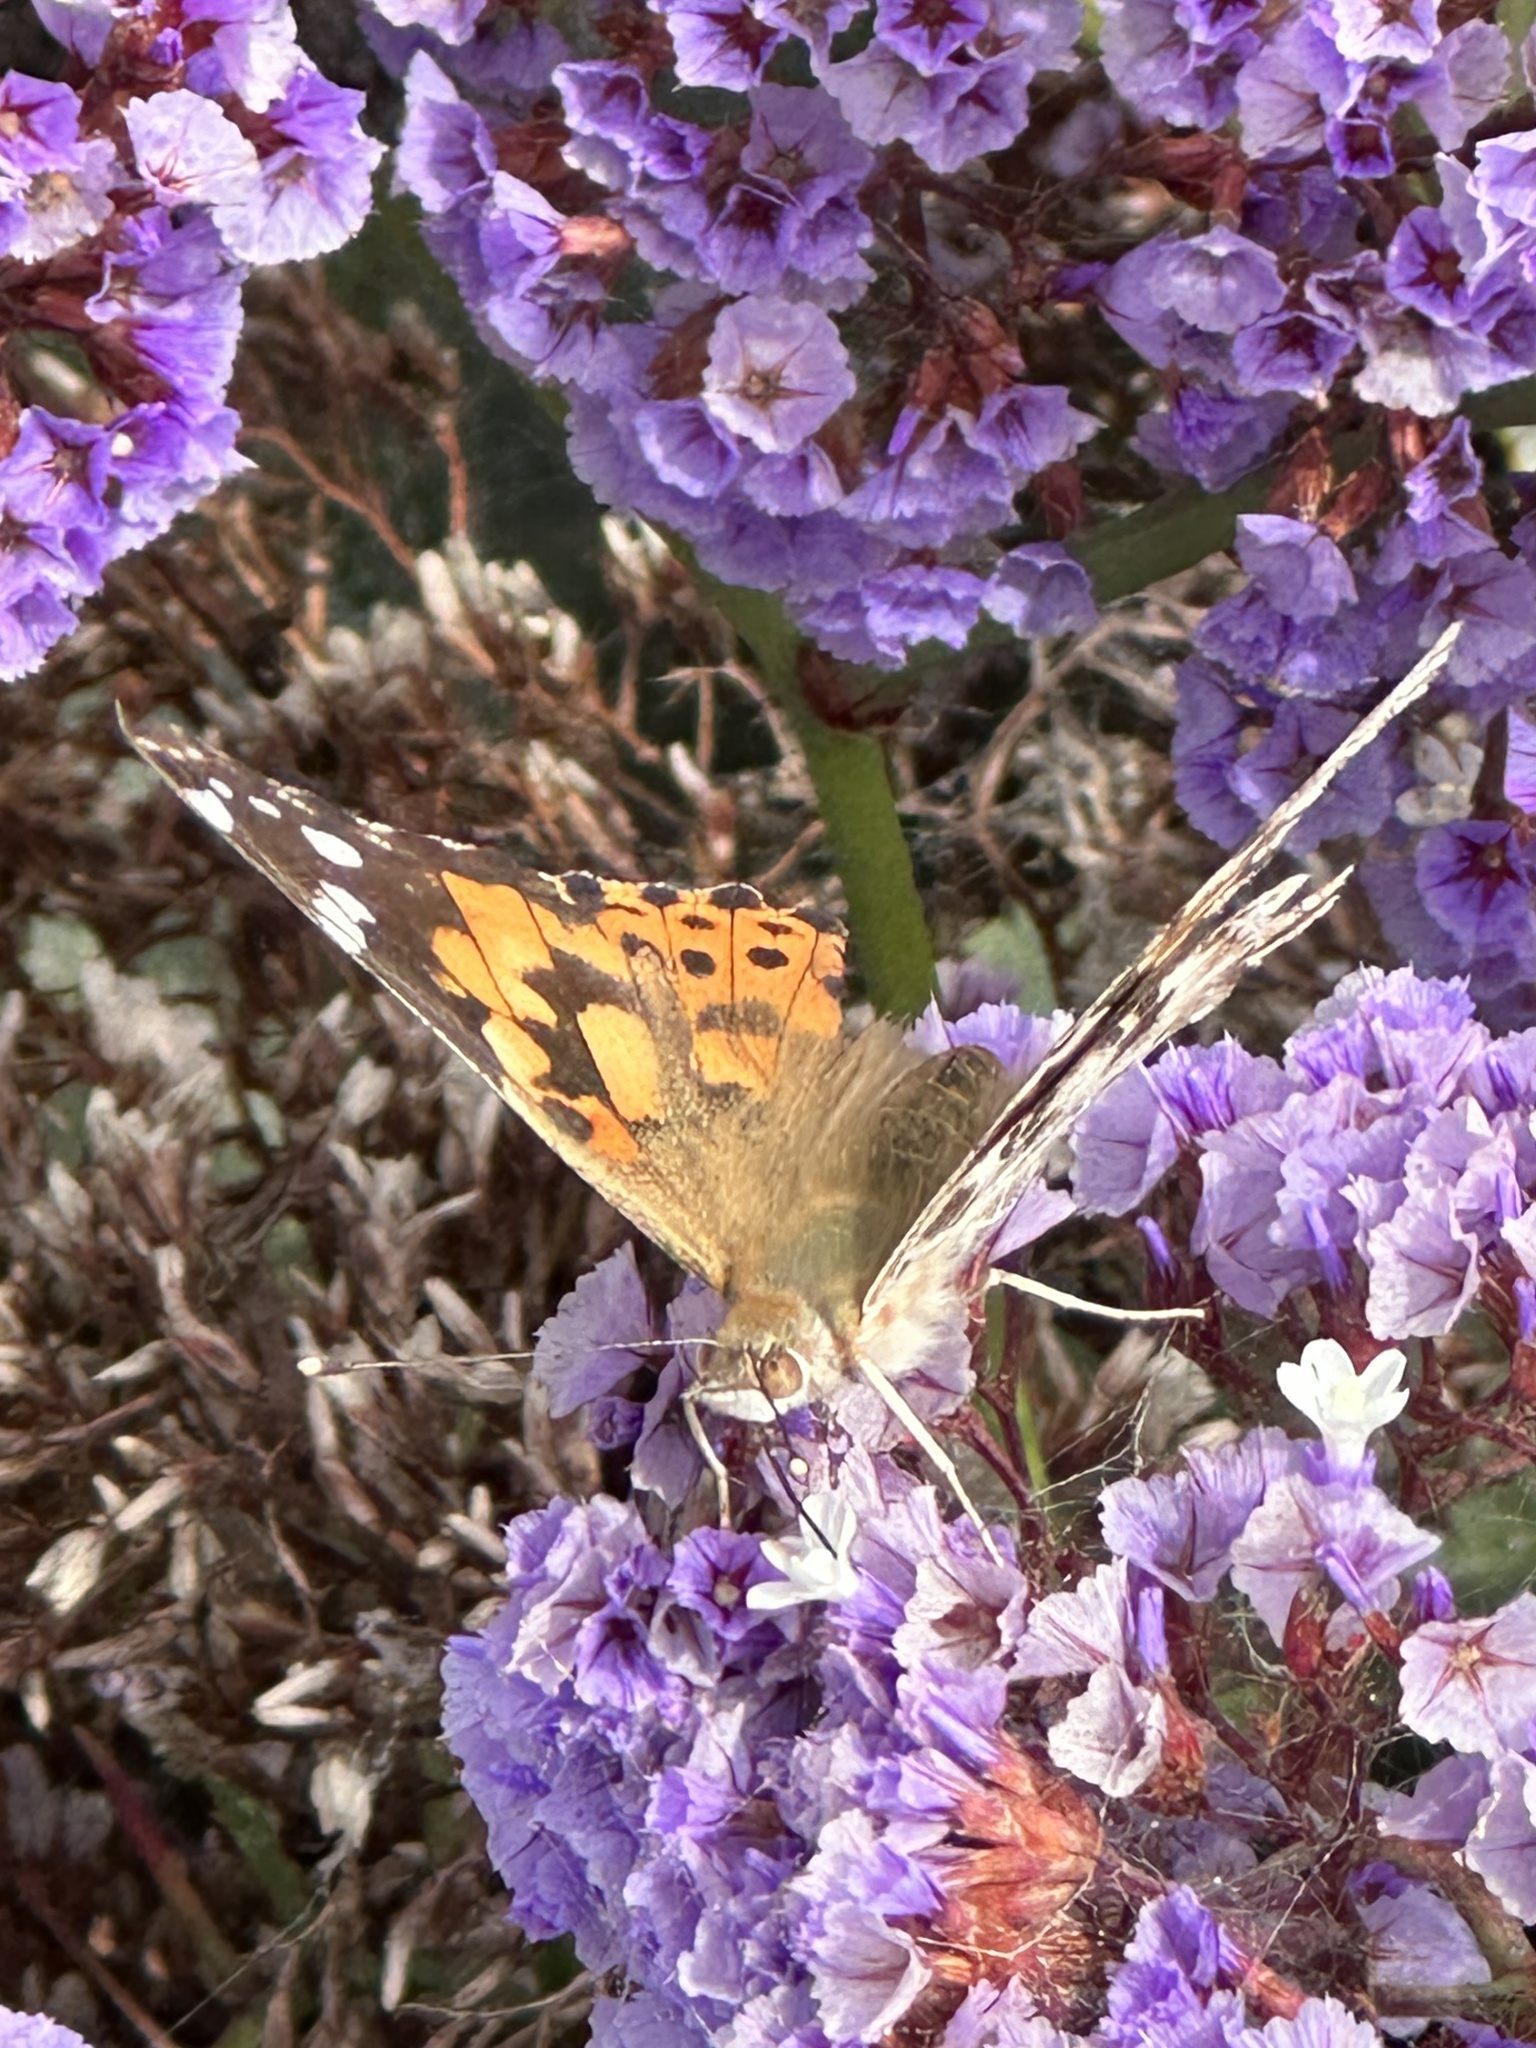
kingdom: Animalia
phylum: Arthropoda
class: Insecta
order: Lepidoptera
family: Nymphalidae
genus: Vanessa
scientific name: Vanessa cardui
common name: Painted lady
